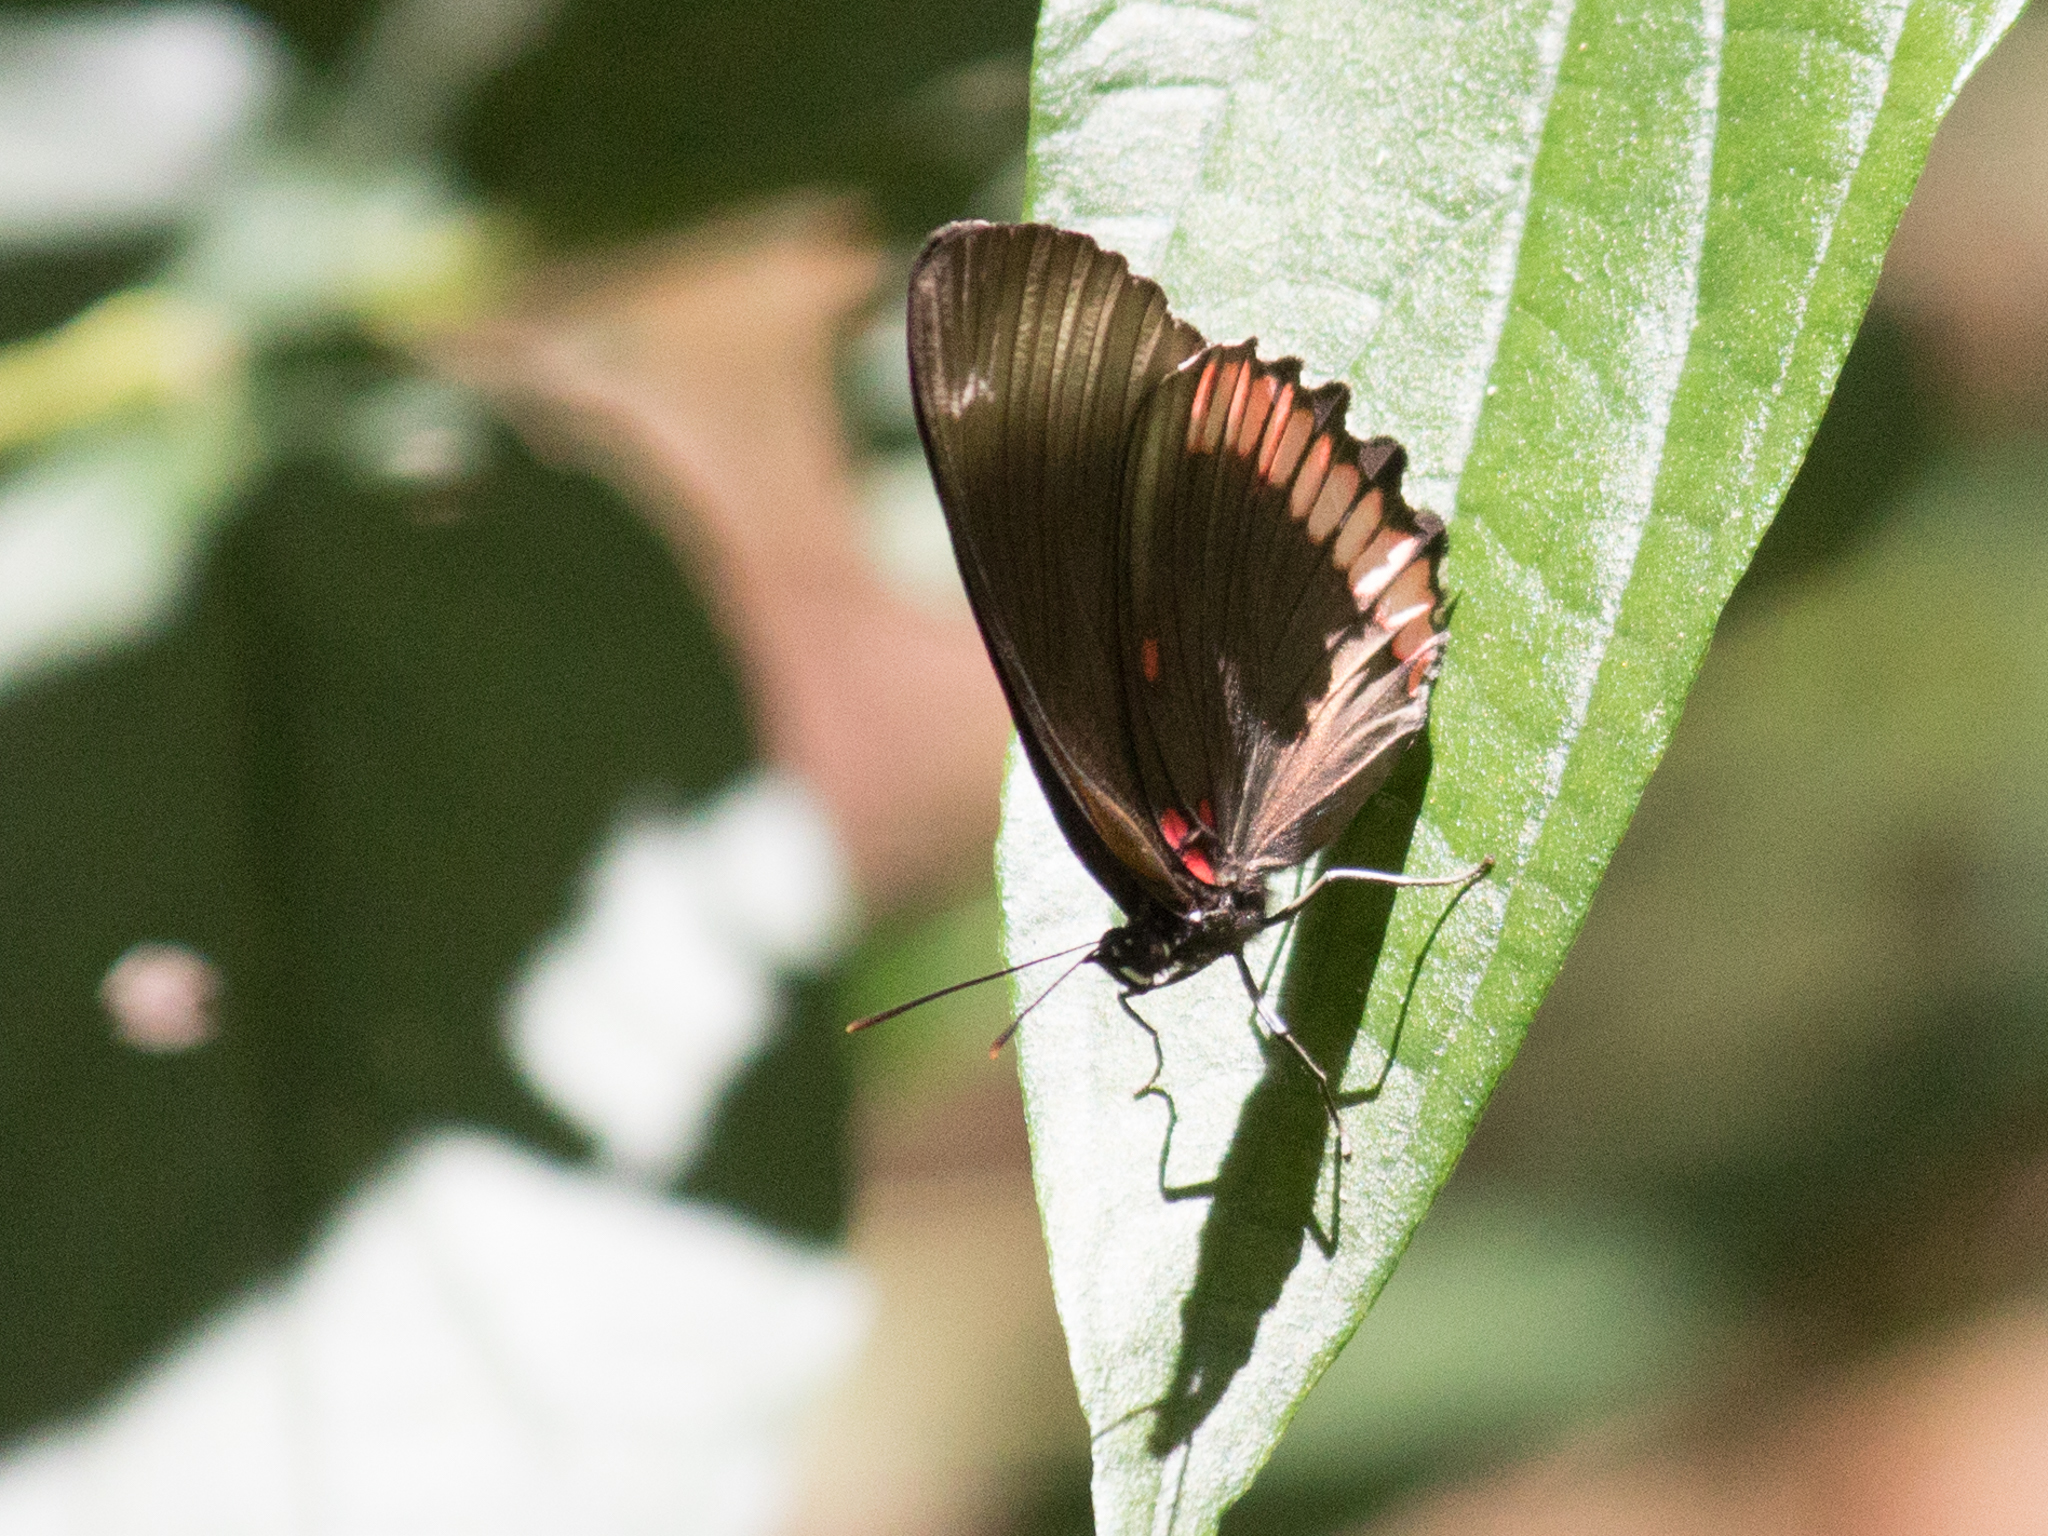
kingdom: Animalia
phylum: Arthropoda
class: Insecta
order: Lepidoptera
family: Sesiidae
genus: Sesia
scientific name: Sesia Biblis hyperia
